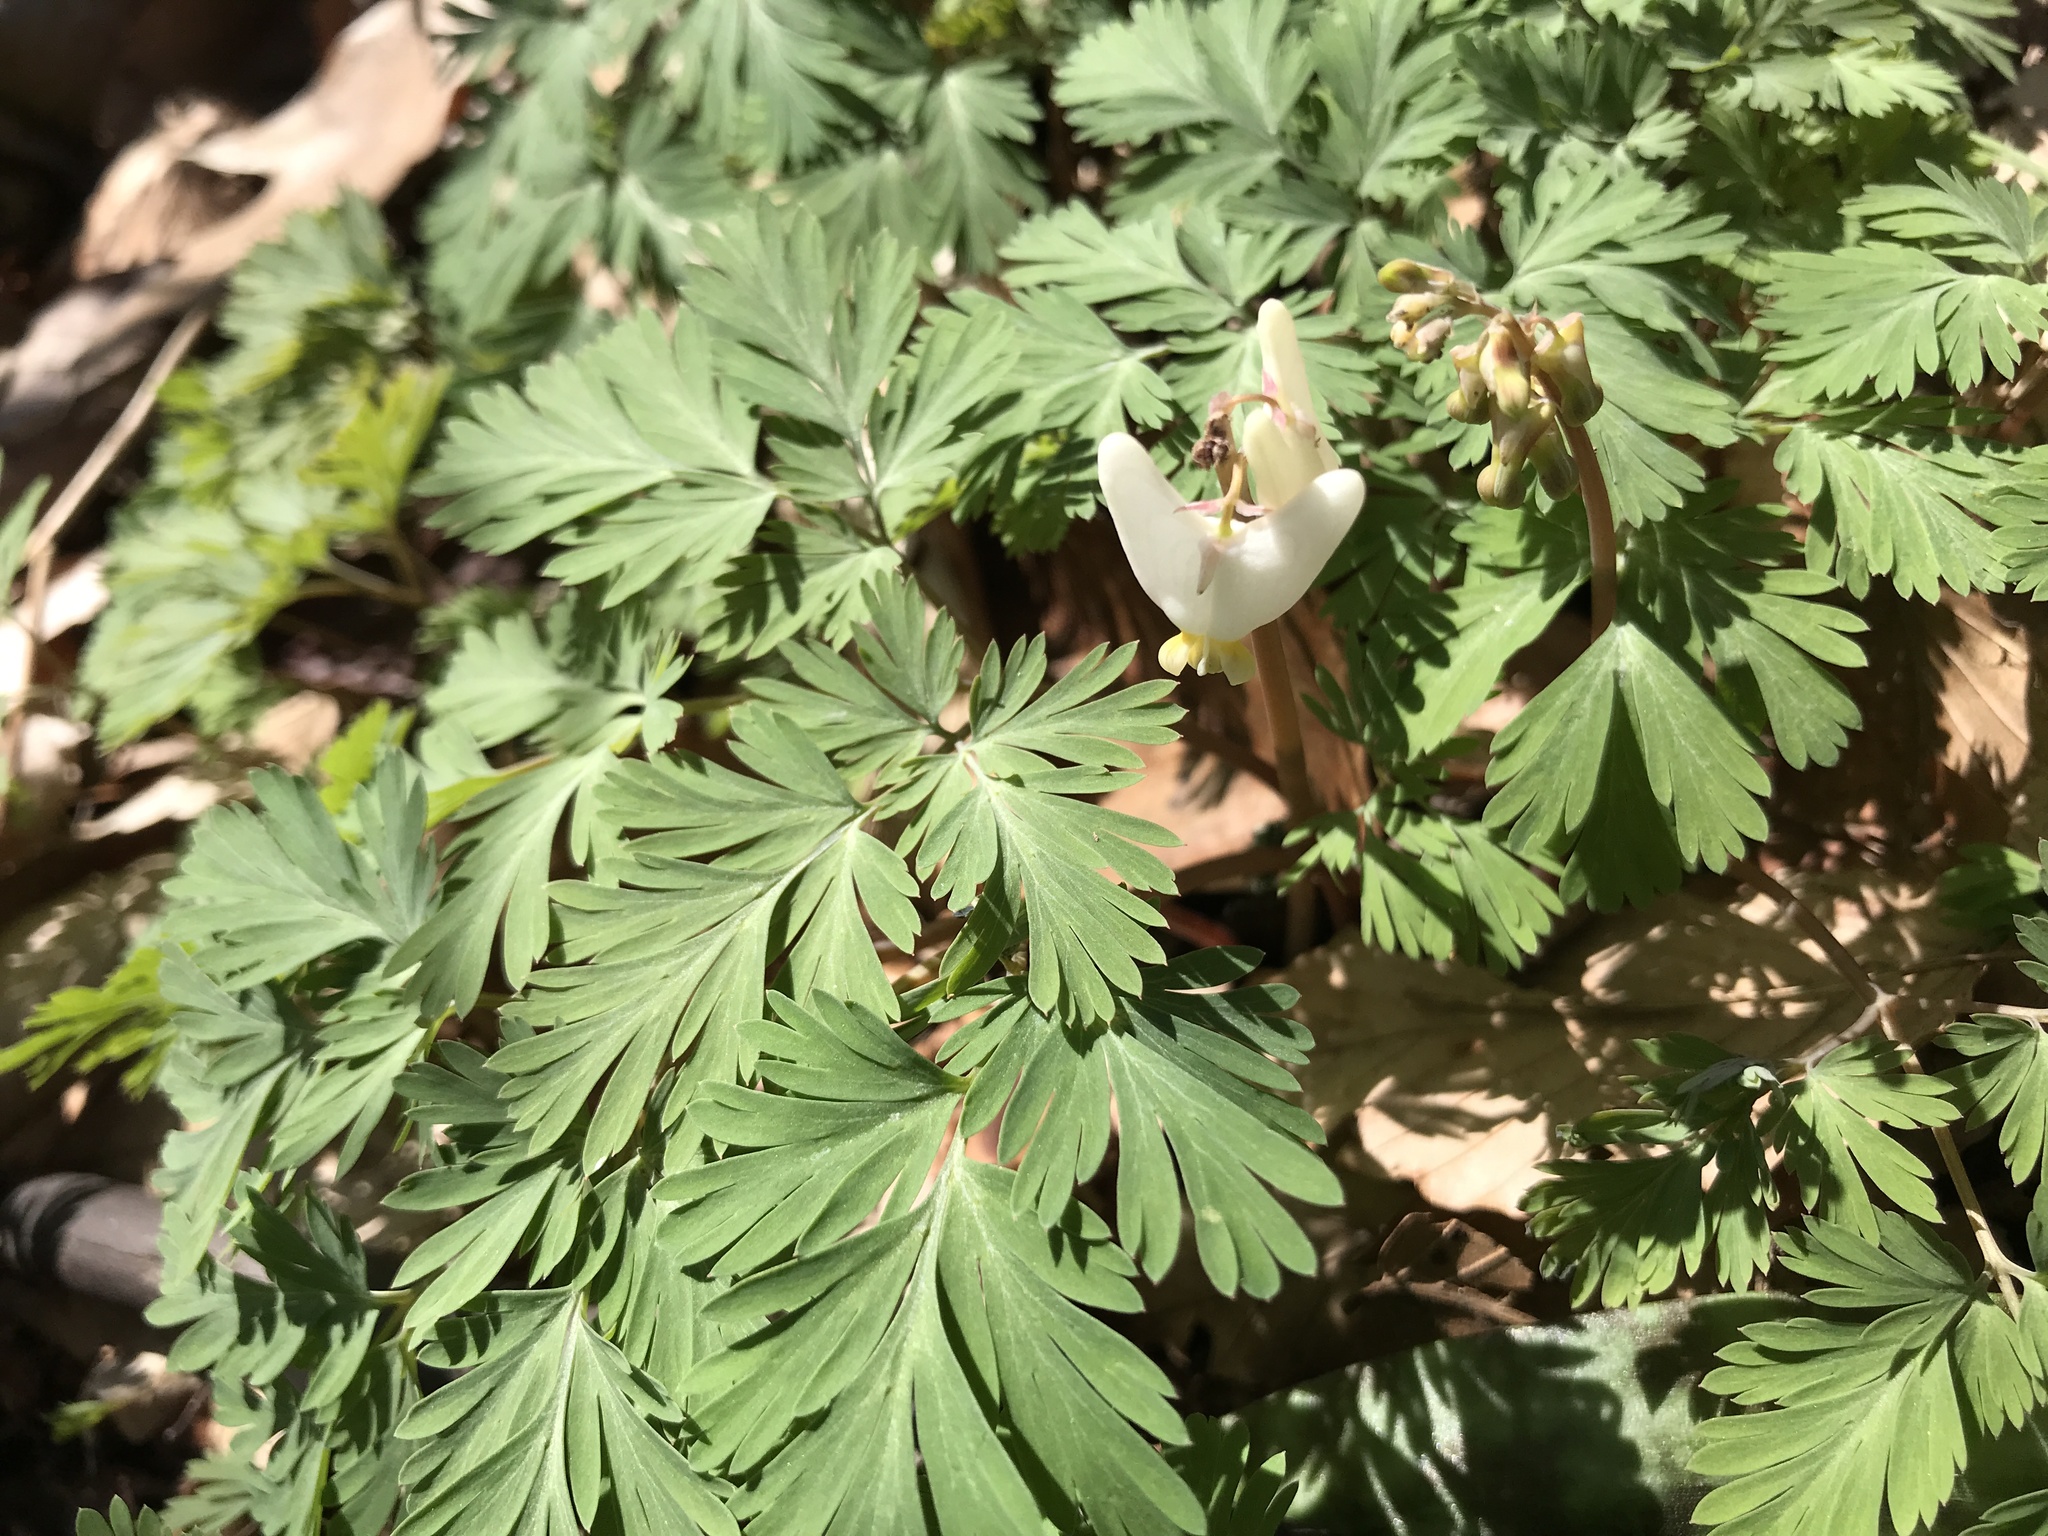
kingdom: Plantae
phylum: Tracheophyta
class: Magnoliopsida
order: Ranunculales
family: Papaveraceae
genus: Dicentra
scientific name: Dicentra cucullaria
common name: Dutchman's breeches
